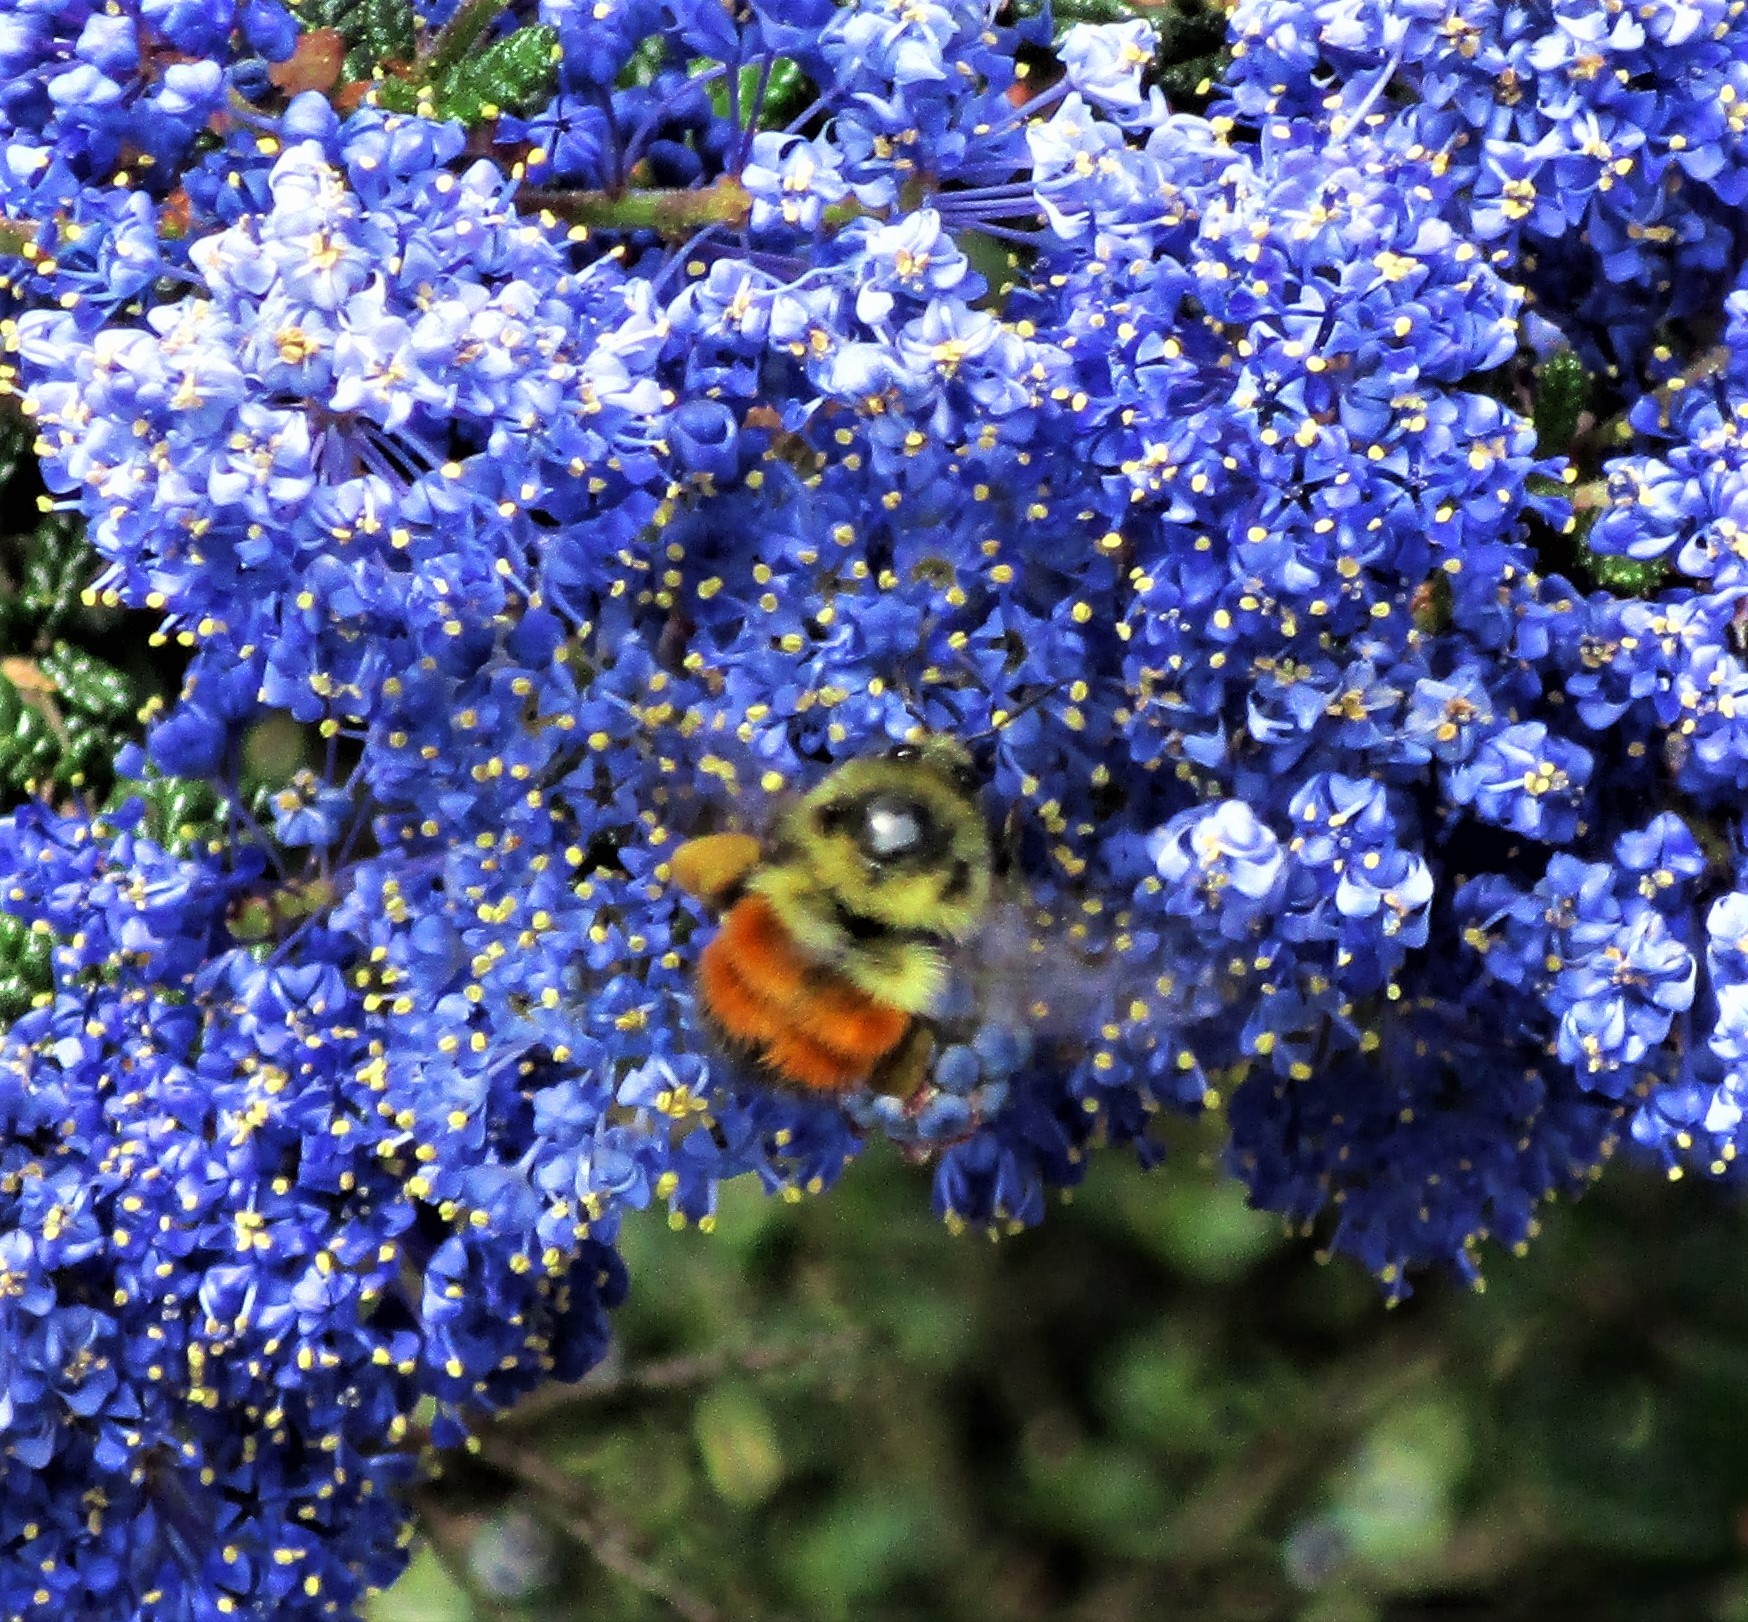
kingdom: Animalia
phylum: Arthropoda
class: Insecta
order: Hymenoptera
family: Apidae
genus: Bombus
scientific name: Bombus melanopygus
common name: Black tail bumble bee
